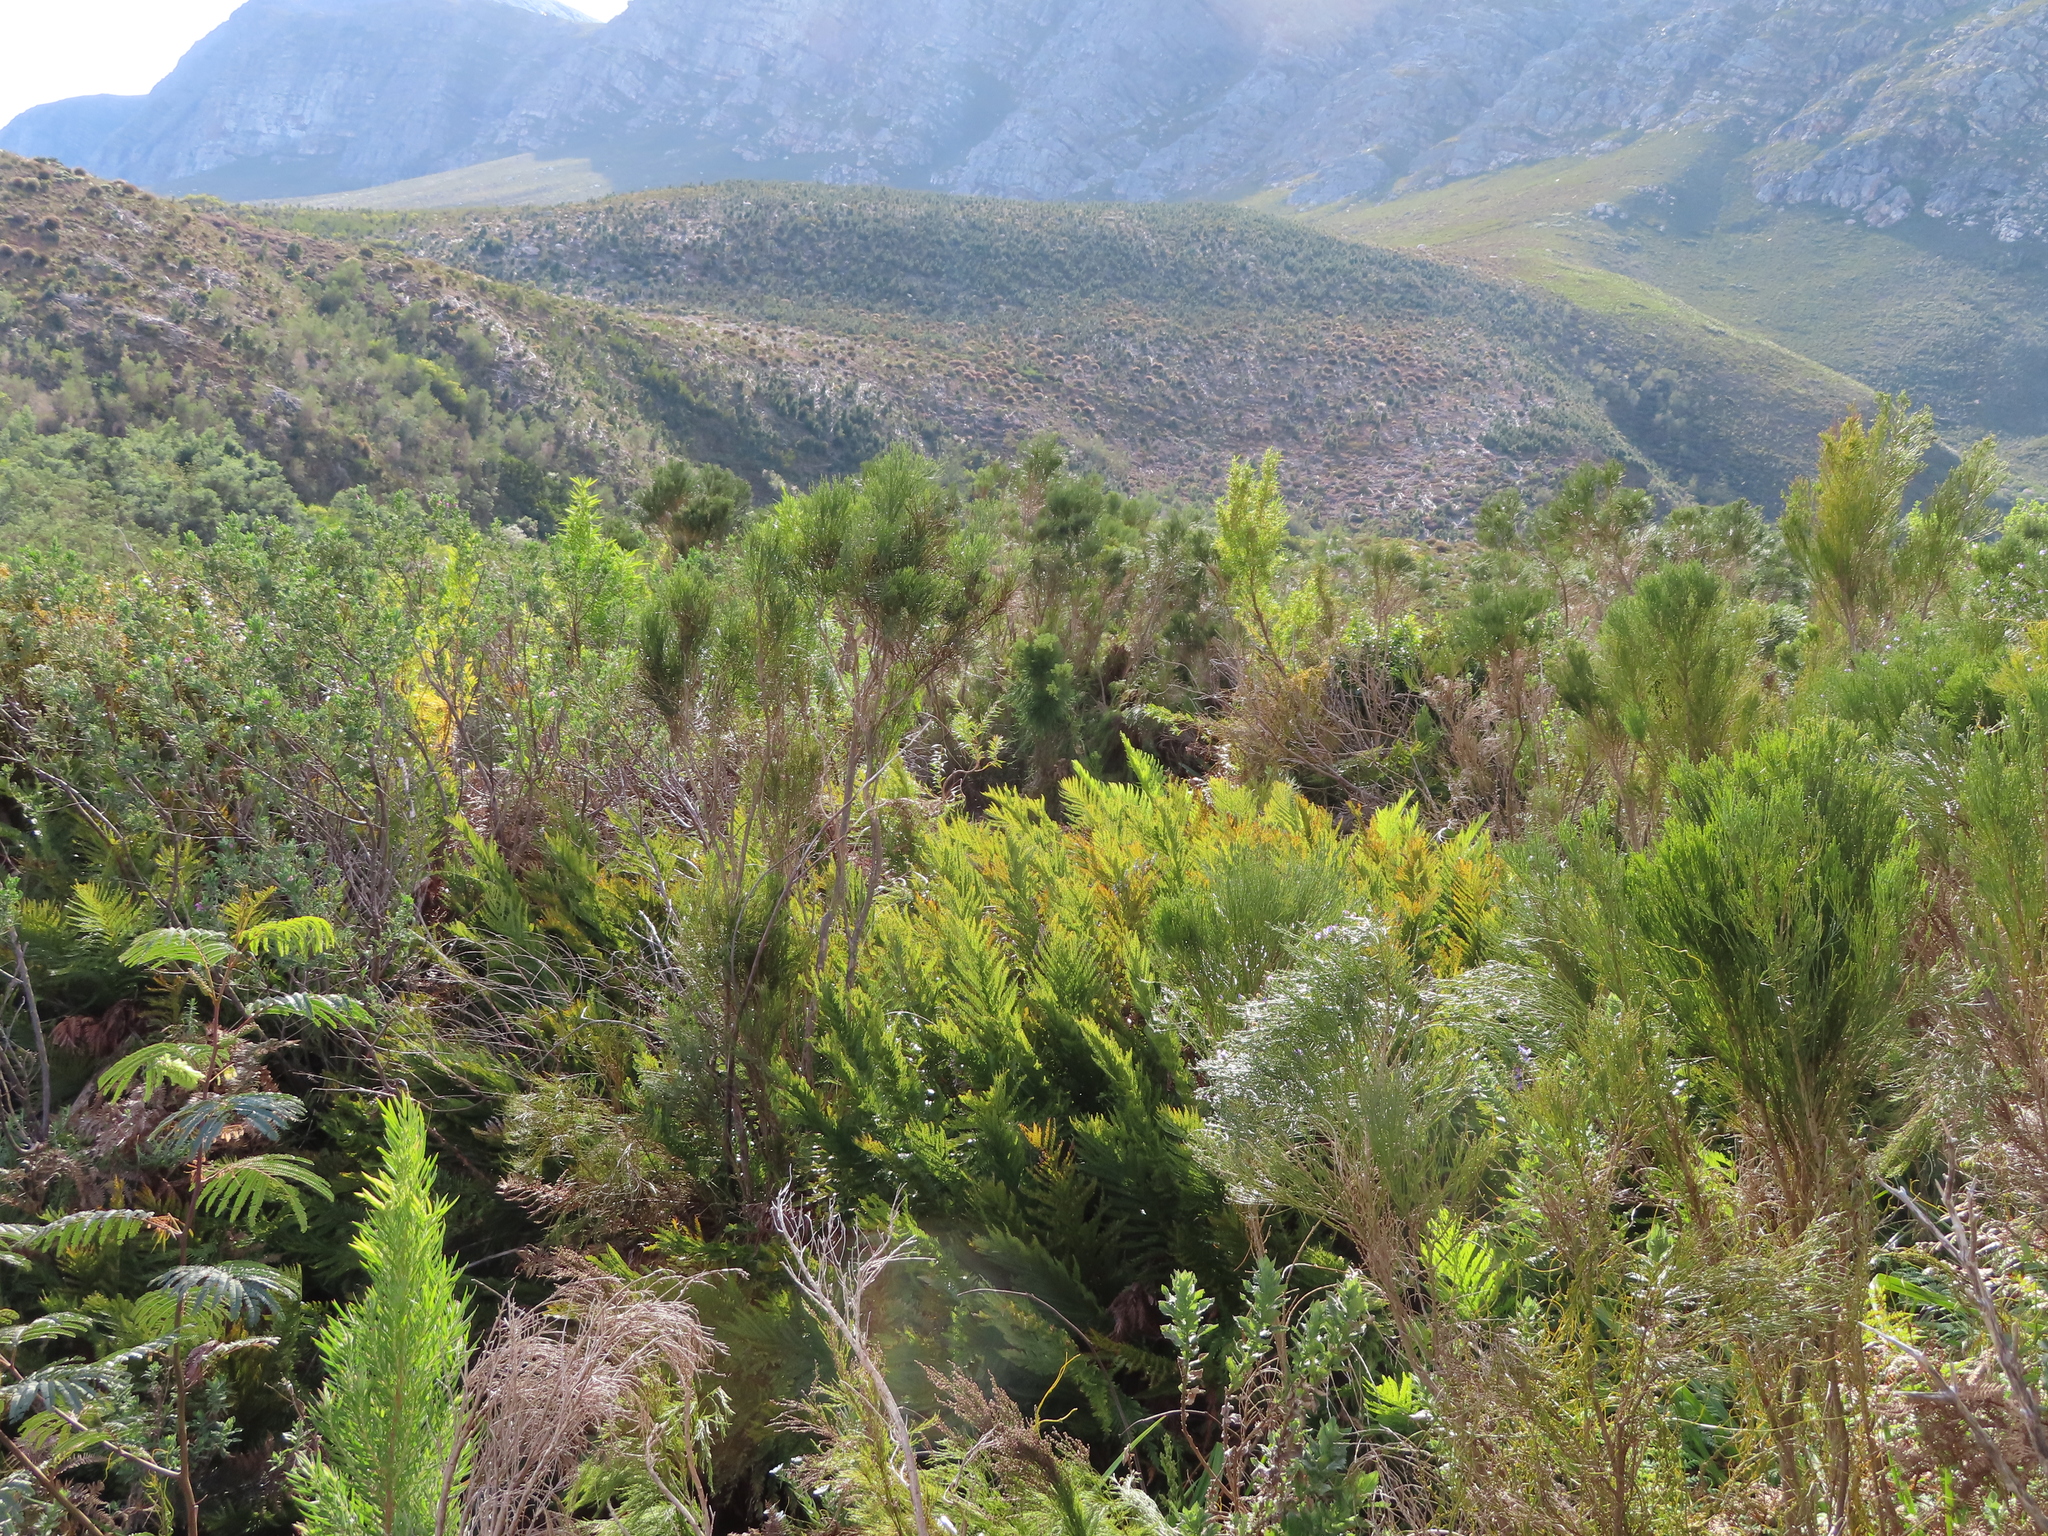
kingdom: Plantae
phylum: Tracheophyta
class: Polypodiopsida
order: Osmundales
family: Osmundaceae
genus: Todea
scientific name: Todea barbara
